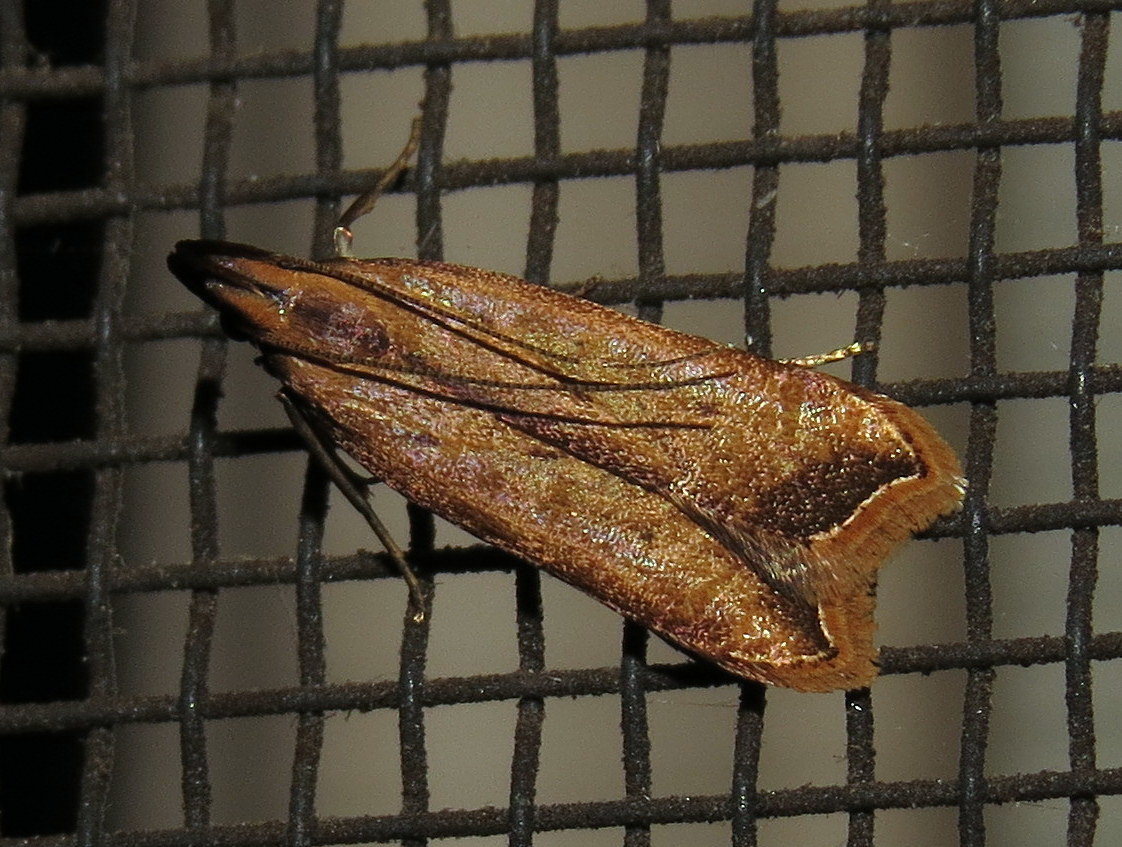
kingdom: Animalia
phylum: Arthropoda
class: Insecta
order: Lepidoptera
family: Gelechiidae
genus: Dichomeris
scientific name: Dichomeris heriguronis
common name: Black-edged dichomeris moth
